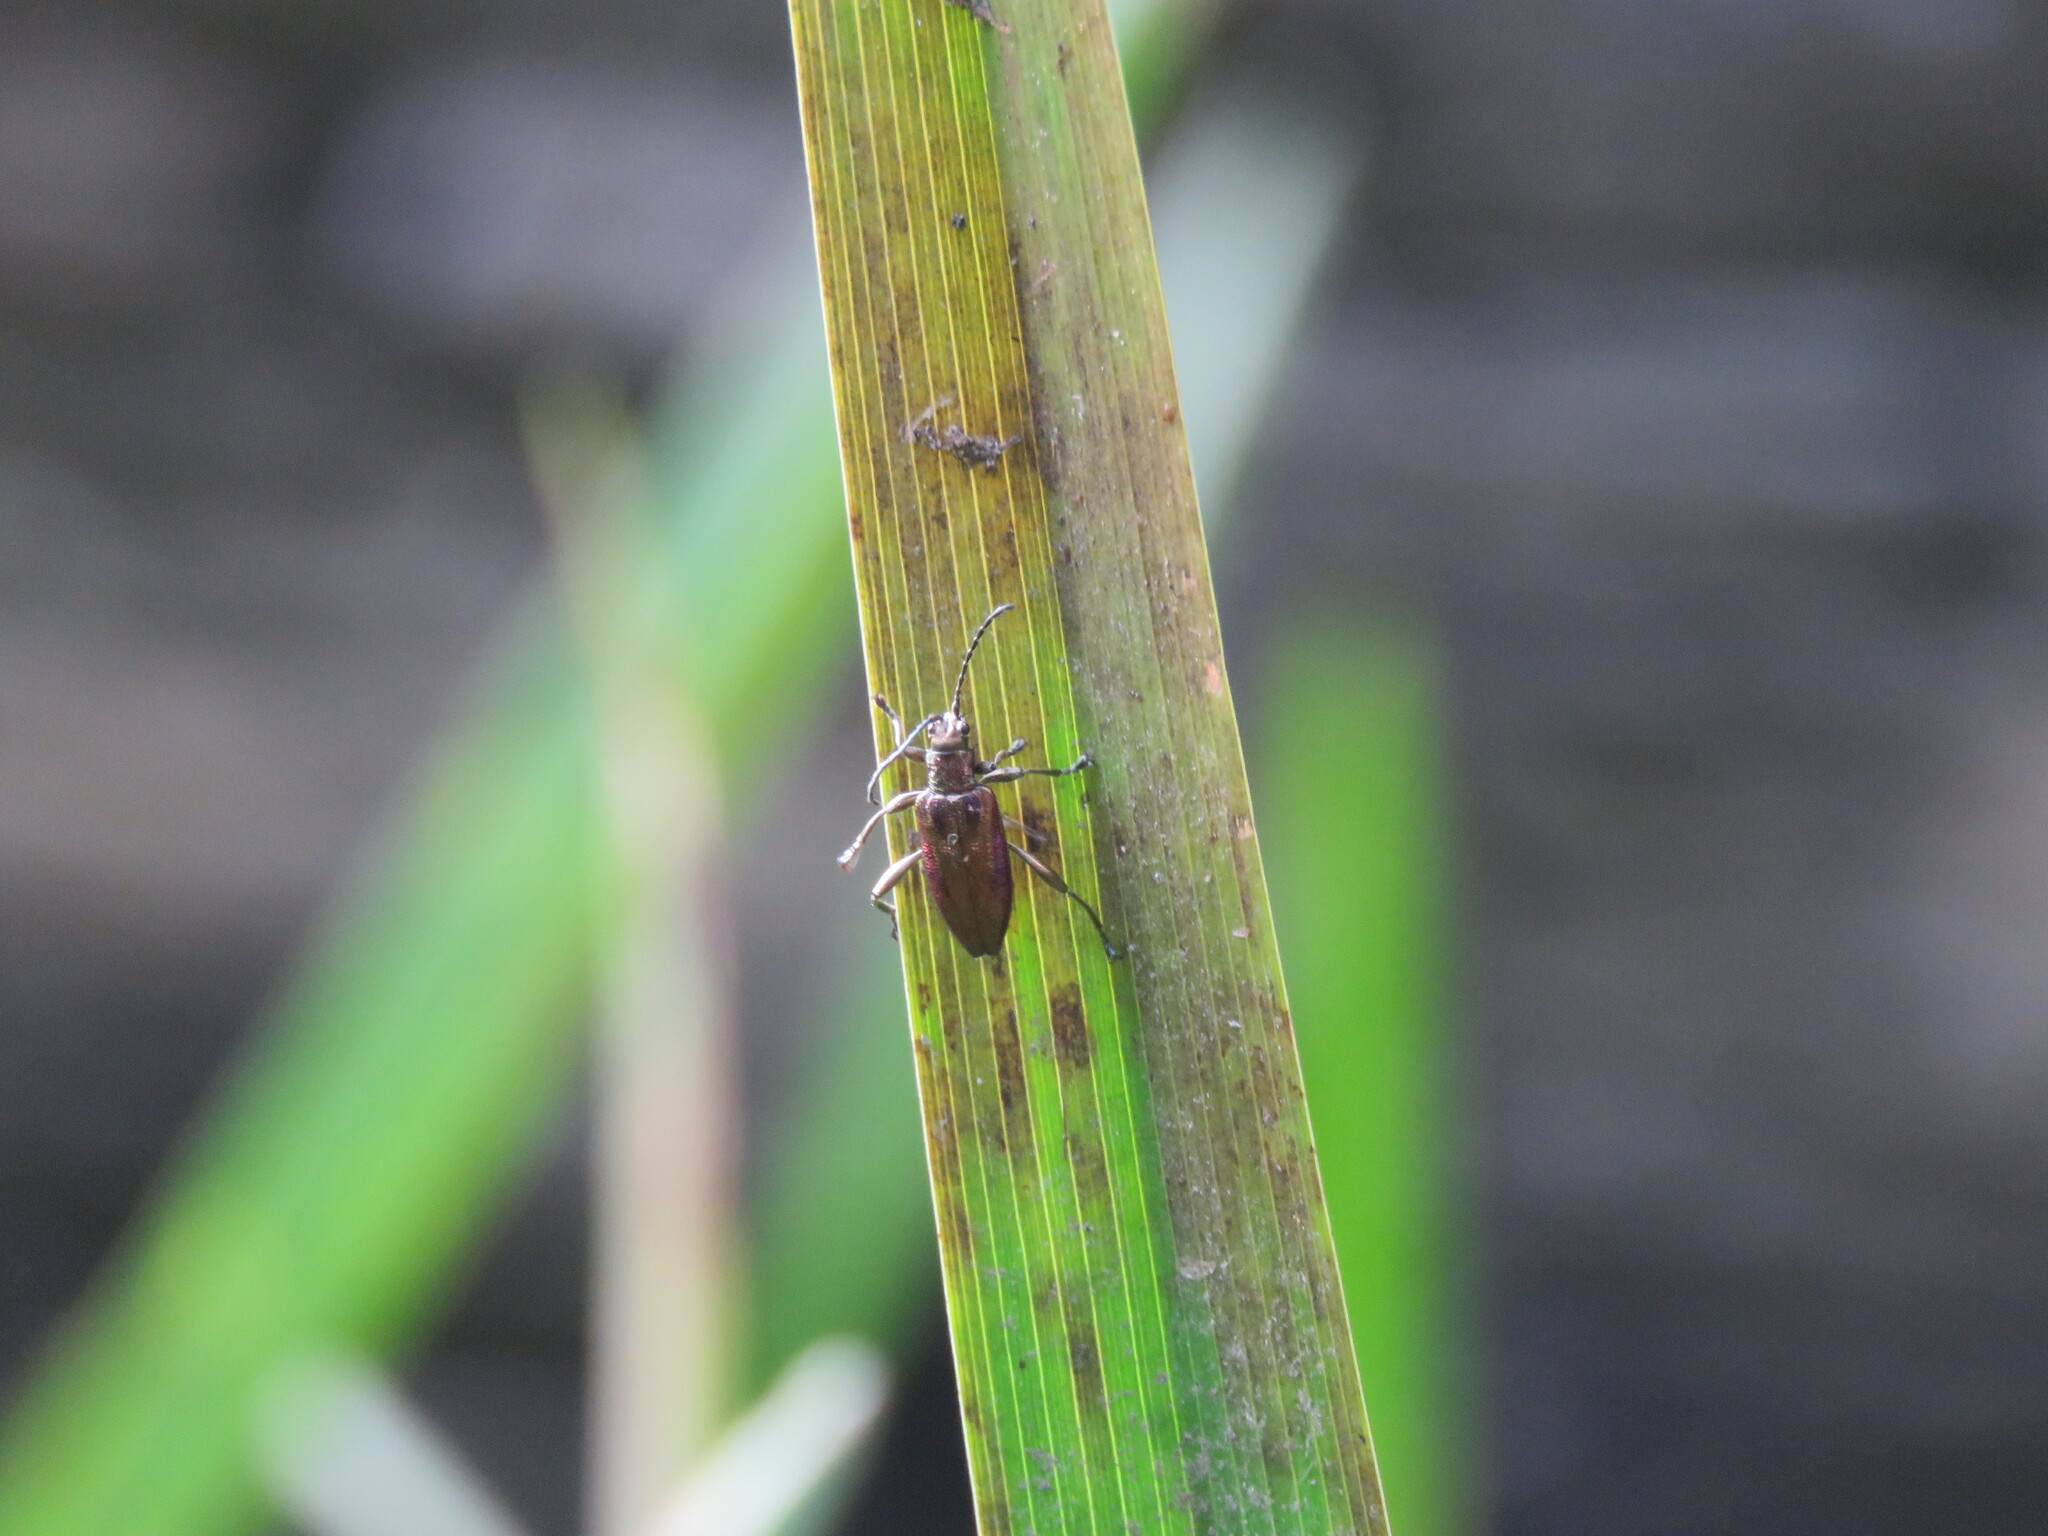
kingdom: Animalia
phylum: Arthropoda
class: Insecta
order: Coleoptera
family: Chrysomelidae
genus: Donacia
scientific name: Donacia marginata
